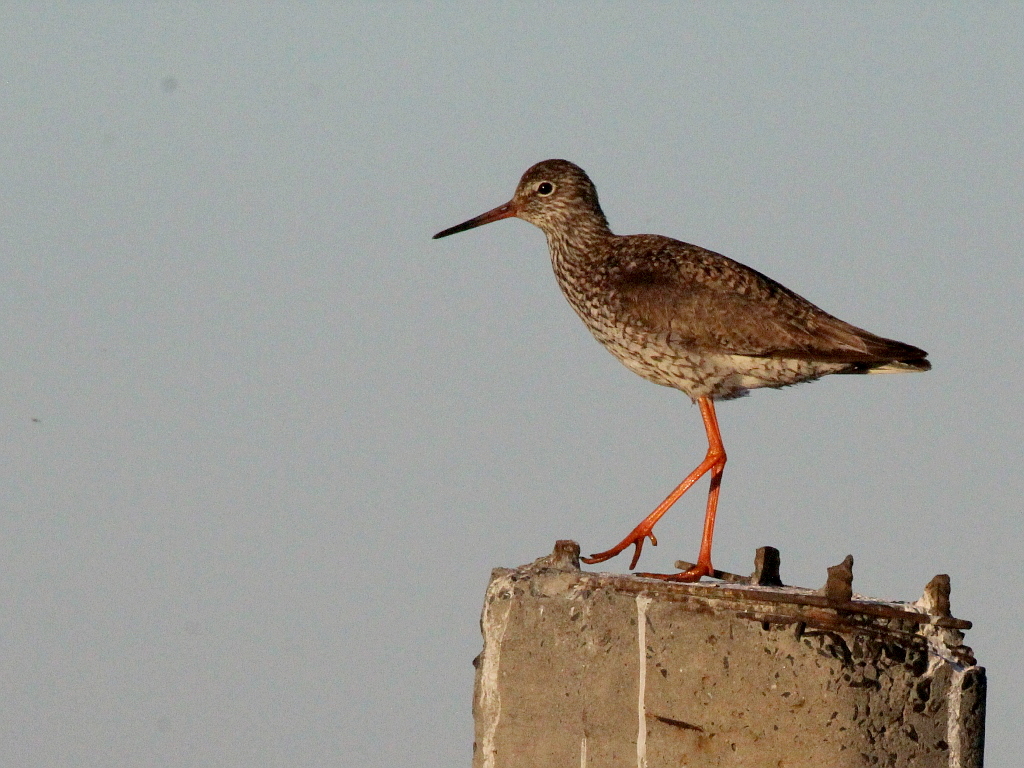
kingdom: Animalia
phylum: Chordata
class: Aves
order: Charadriiformes
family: Scolopacidae
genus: Tringa
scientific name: Tringa totanus
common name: Common redshank
